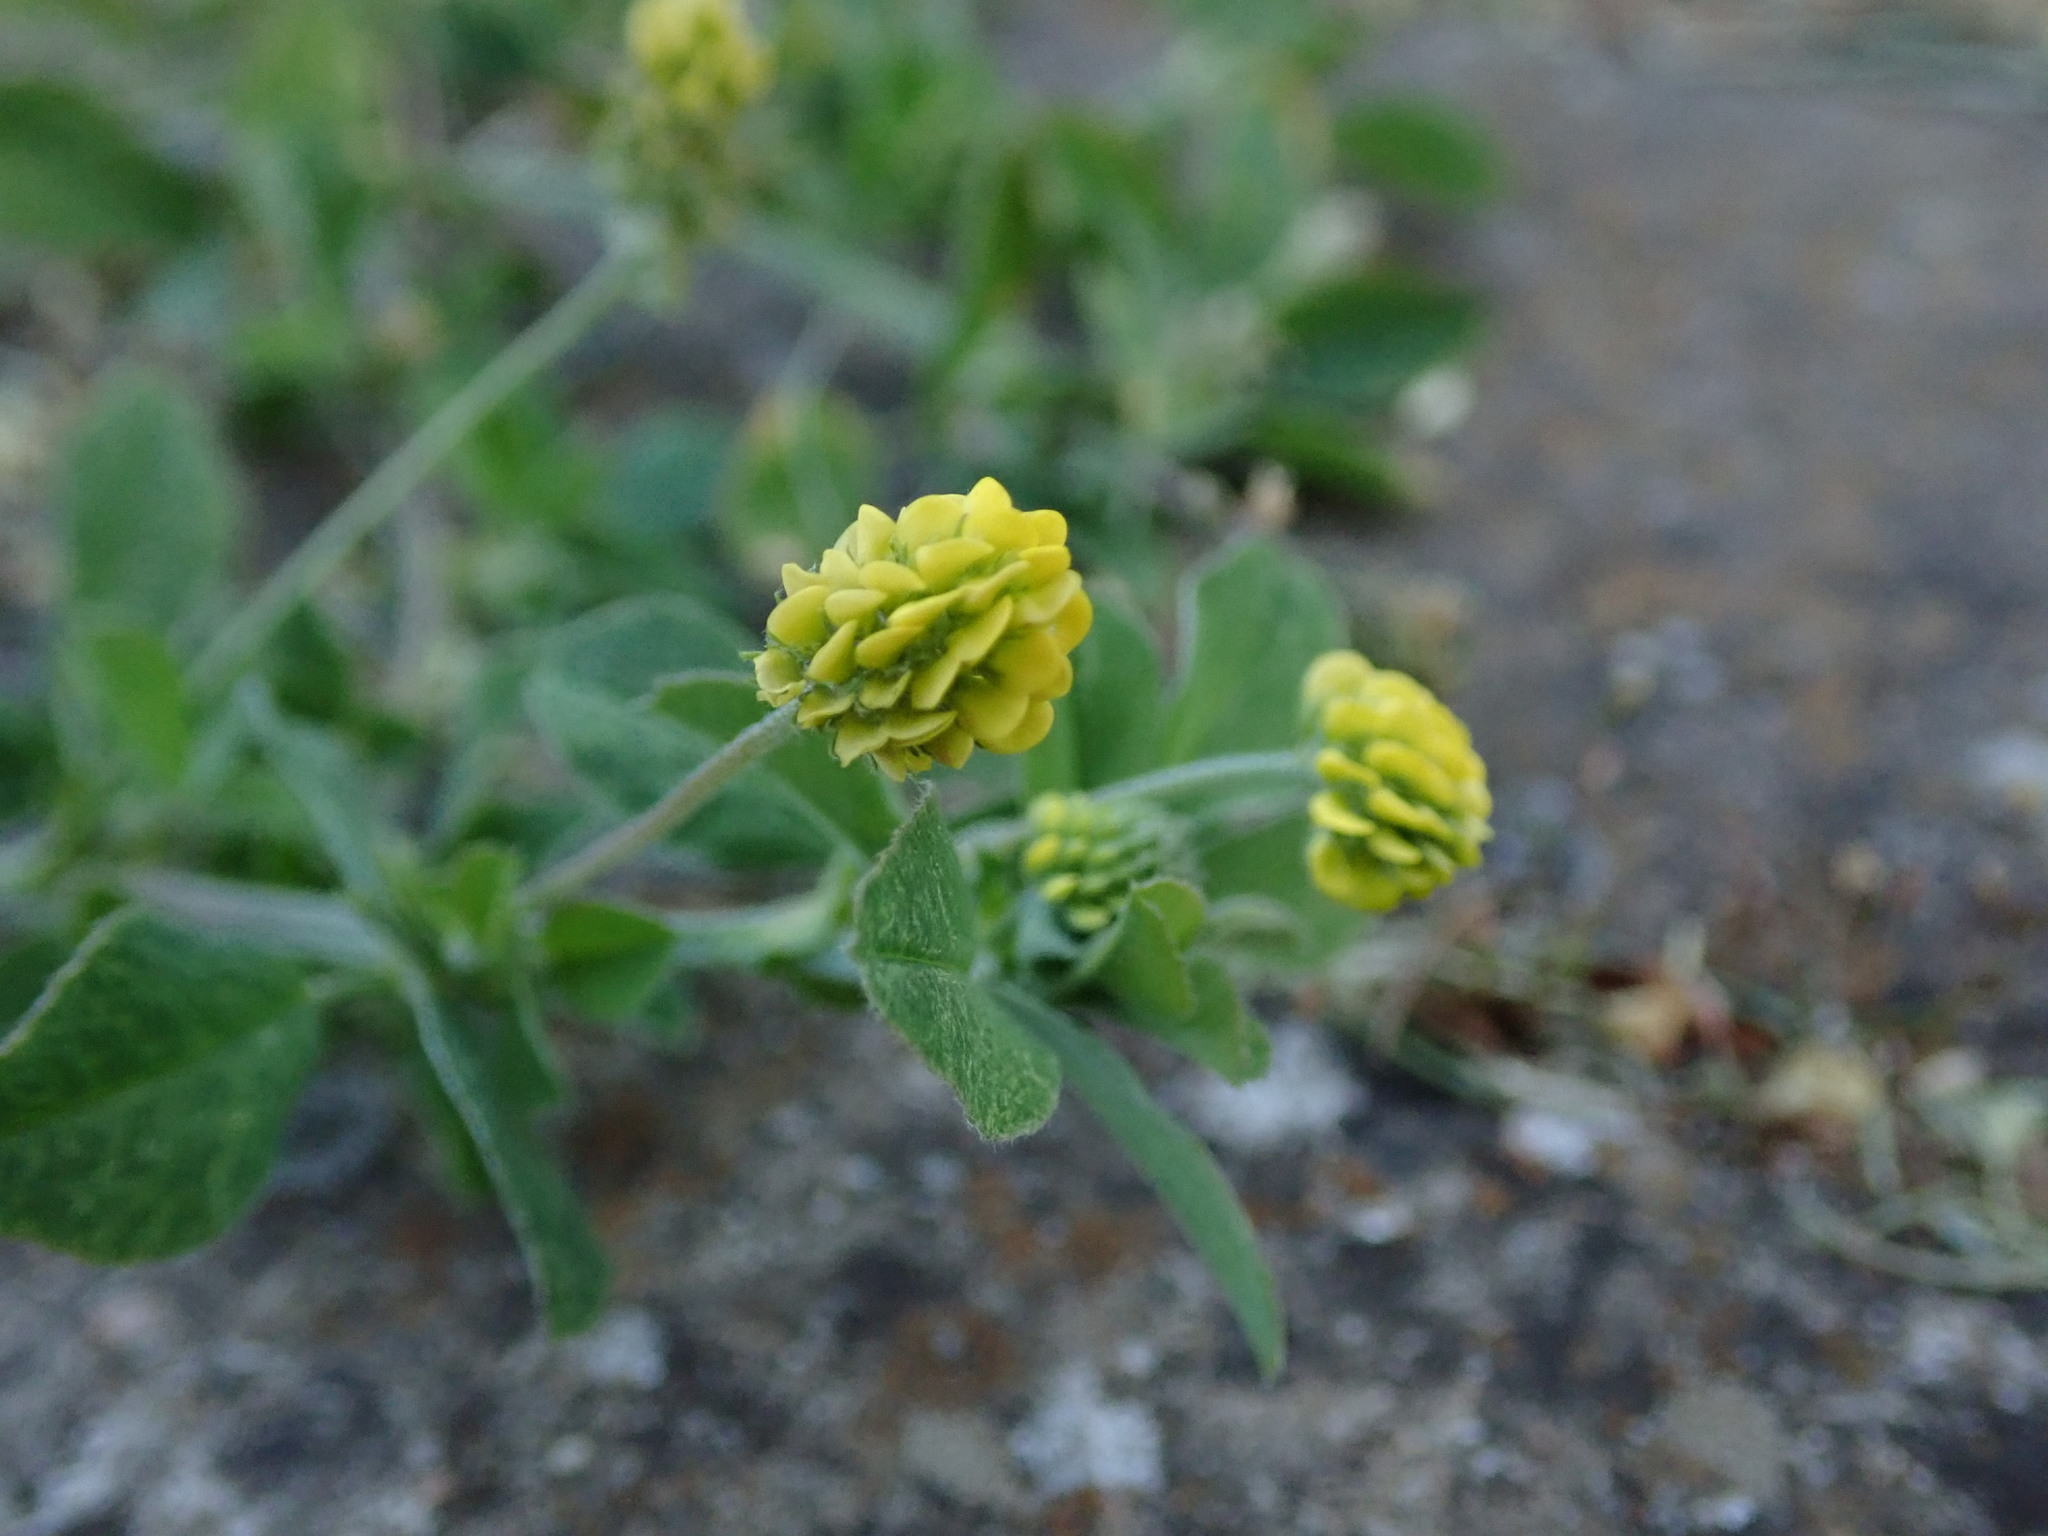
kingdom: Plantae
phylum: Tracheophyta
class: Magnoliopsida
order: Fabales
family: Fabaceae
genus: Medicago
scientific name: Medicago lupulina
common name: Black medick
